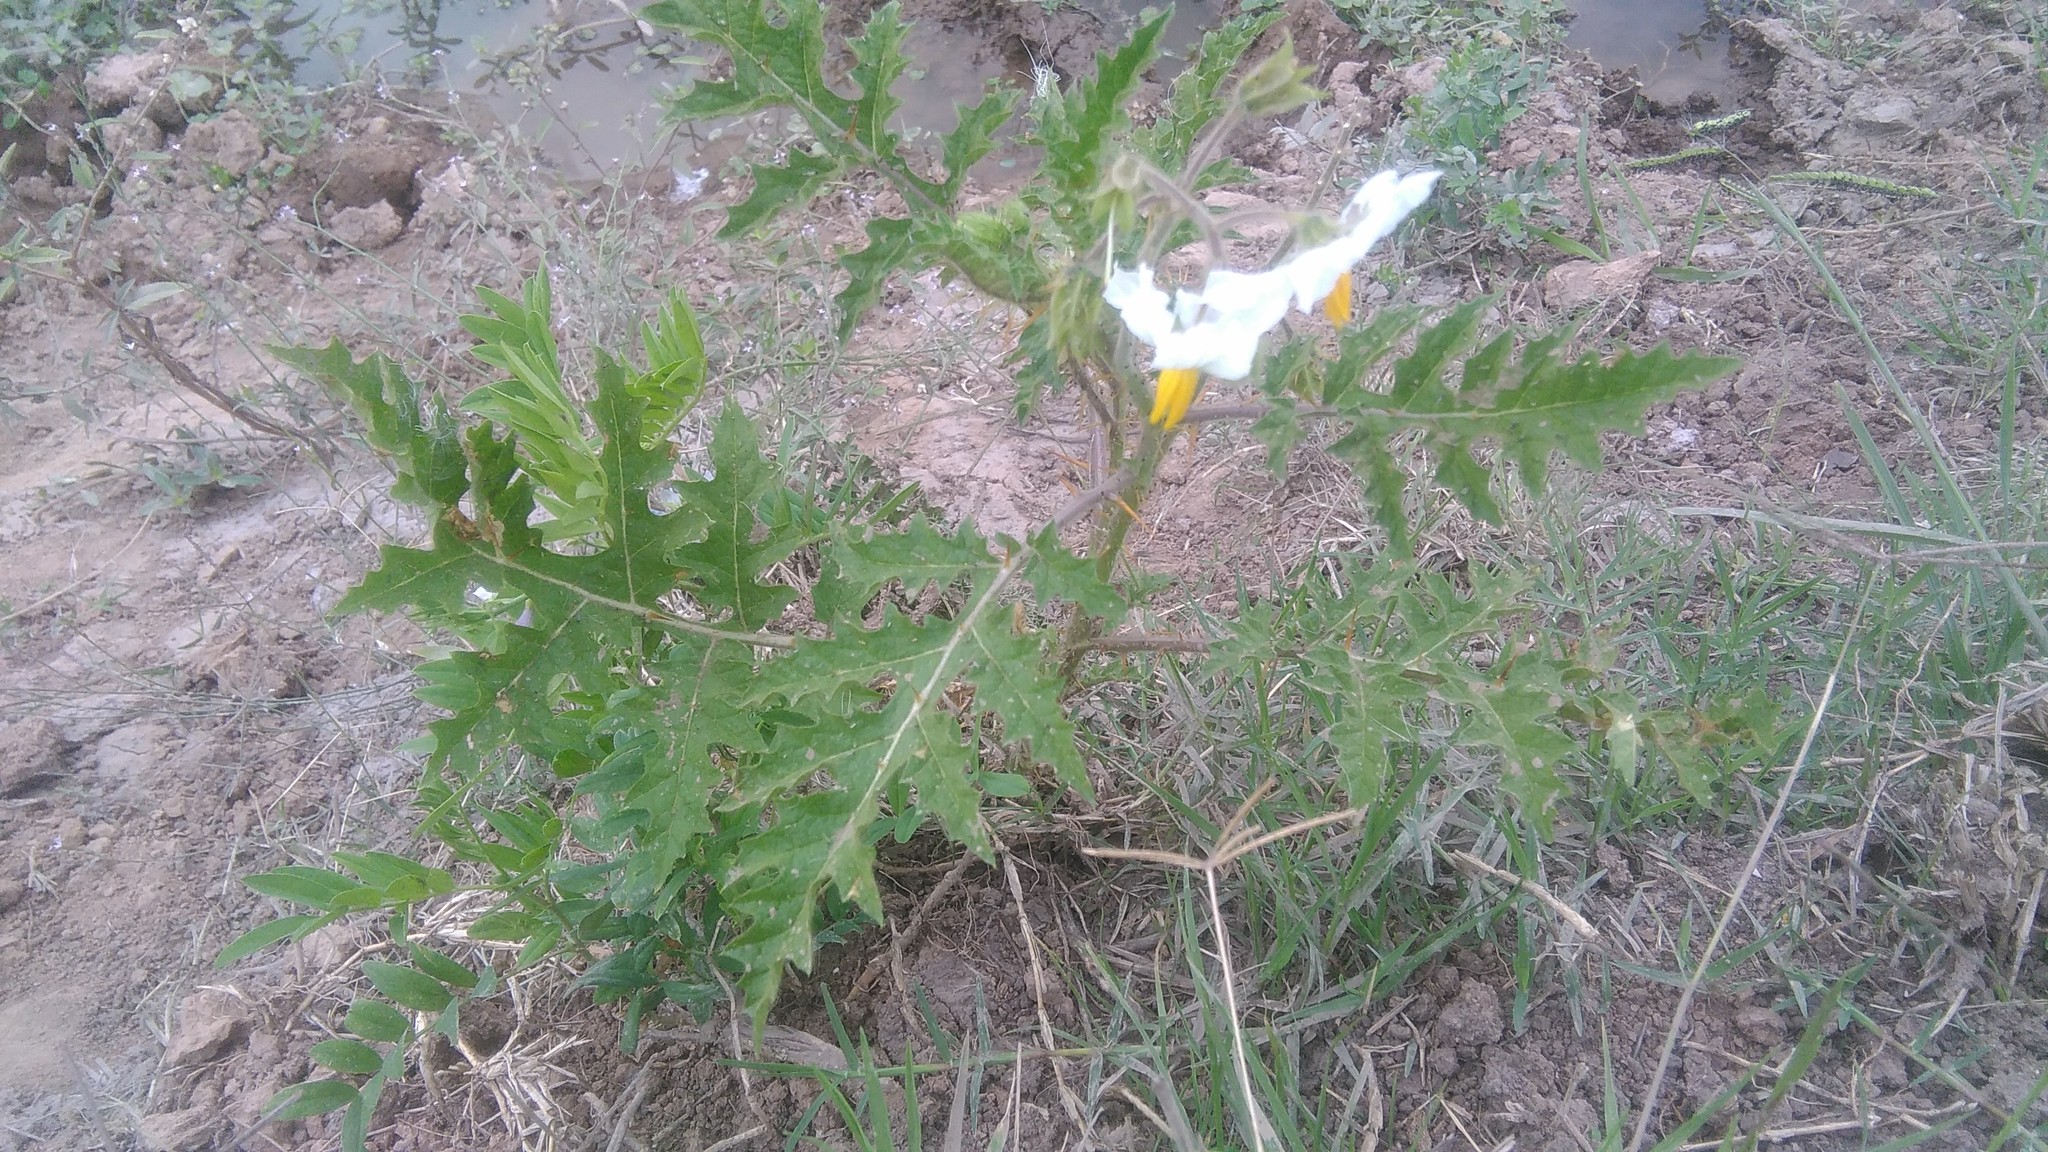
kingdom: Plantae
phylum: Tracheophyta
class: Magnoliopsida
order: Solanales
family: Solanaceae
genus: Solanum
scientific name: Solanum sisymbriifolium
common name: Red buffalo-bur
